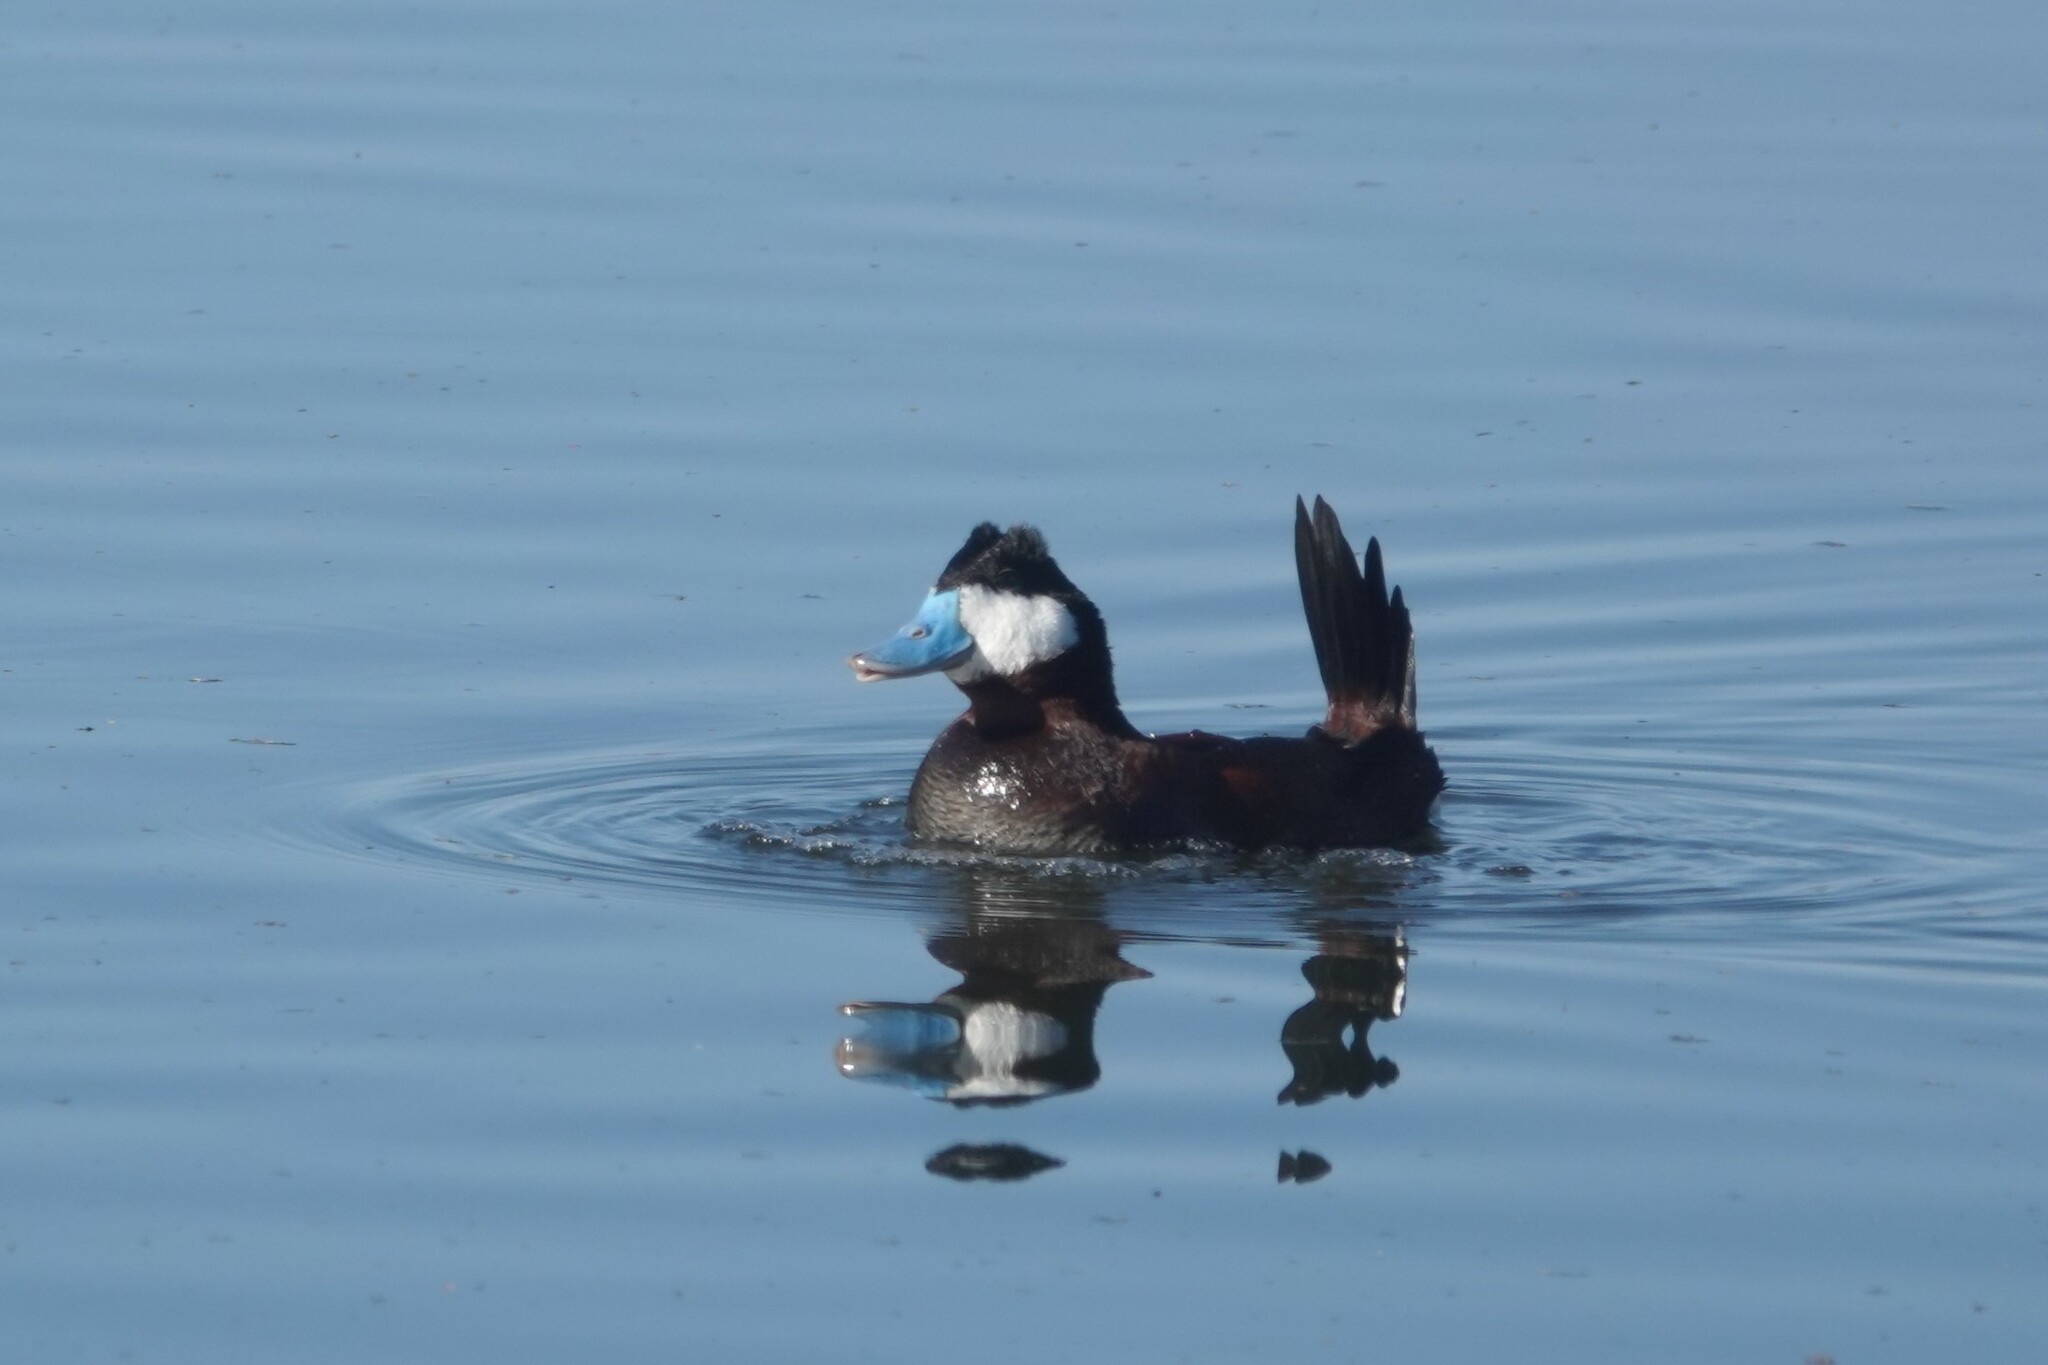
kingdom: Animalia
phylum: Chordata
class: Aves
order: Anseriformes
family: Anatidae
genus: Oxyura
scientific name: Oxyura jamaicensis
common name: Ruddy duck
